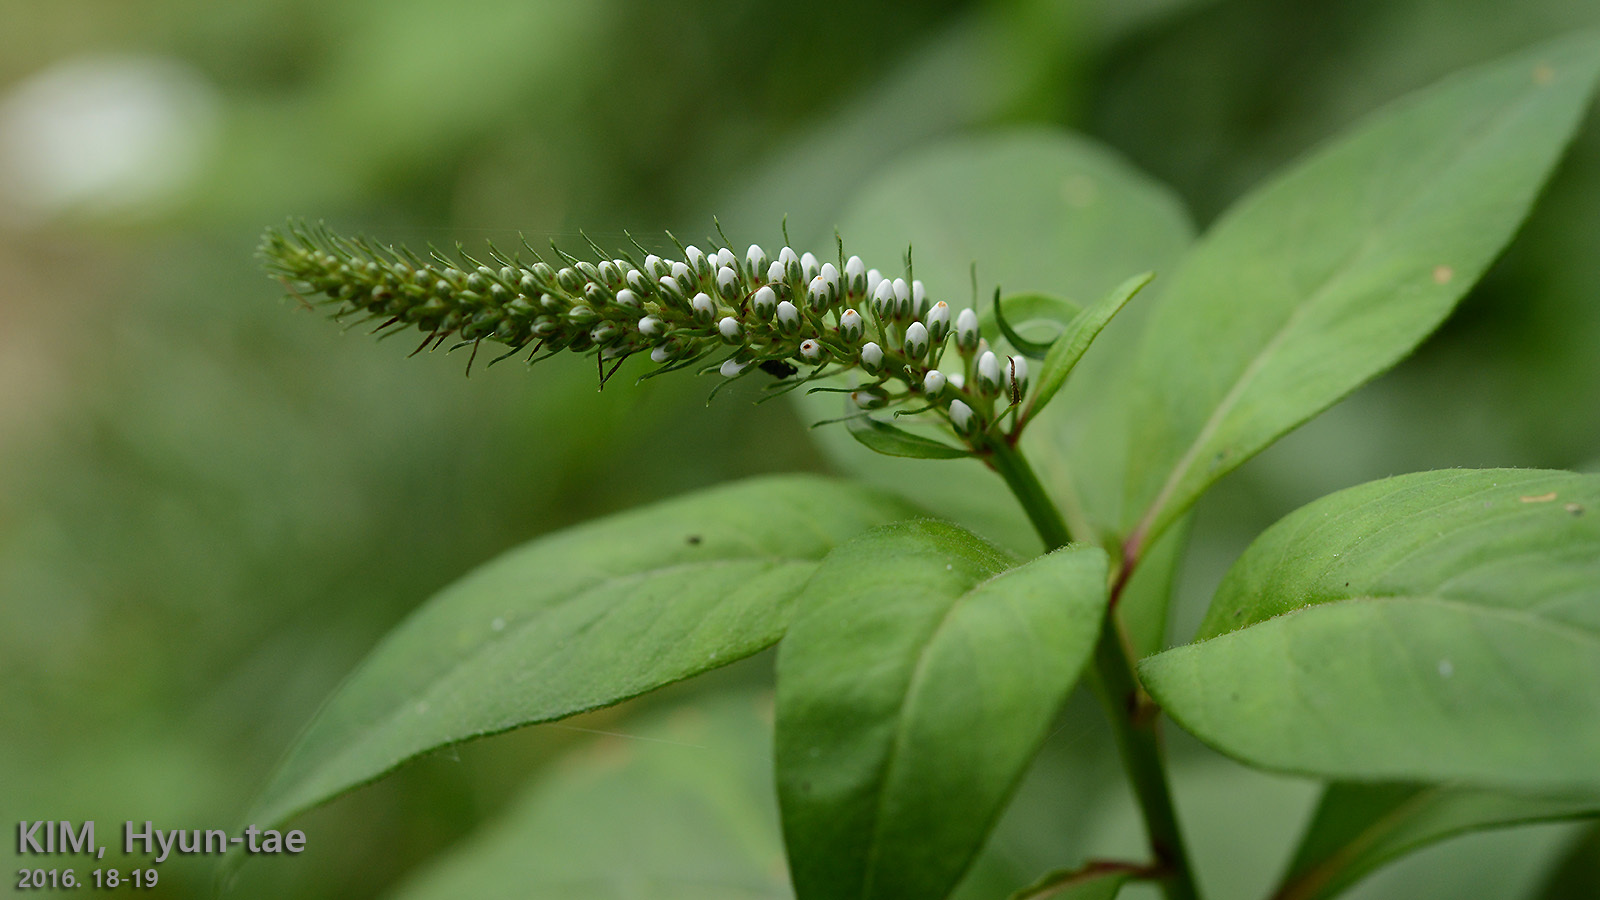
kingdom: Plantae
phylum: Tracheophyta
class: Magnoliopsida
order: Ericales
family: Primulaceae
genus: Lysimachia
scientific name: Lysimachia clethroides
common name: Gooseneck loosestrife
